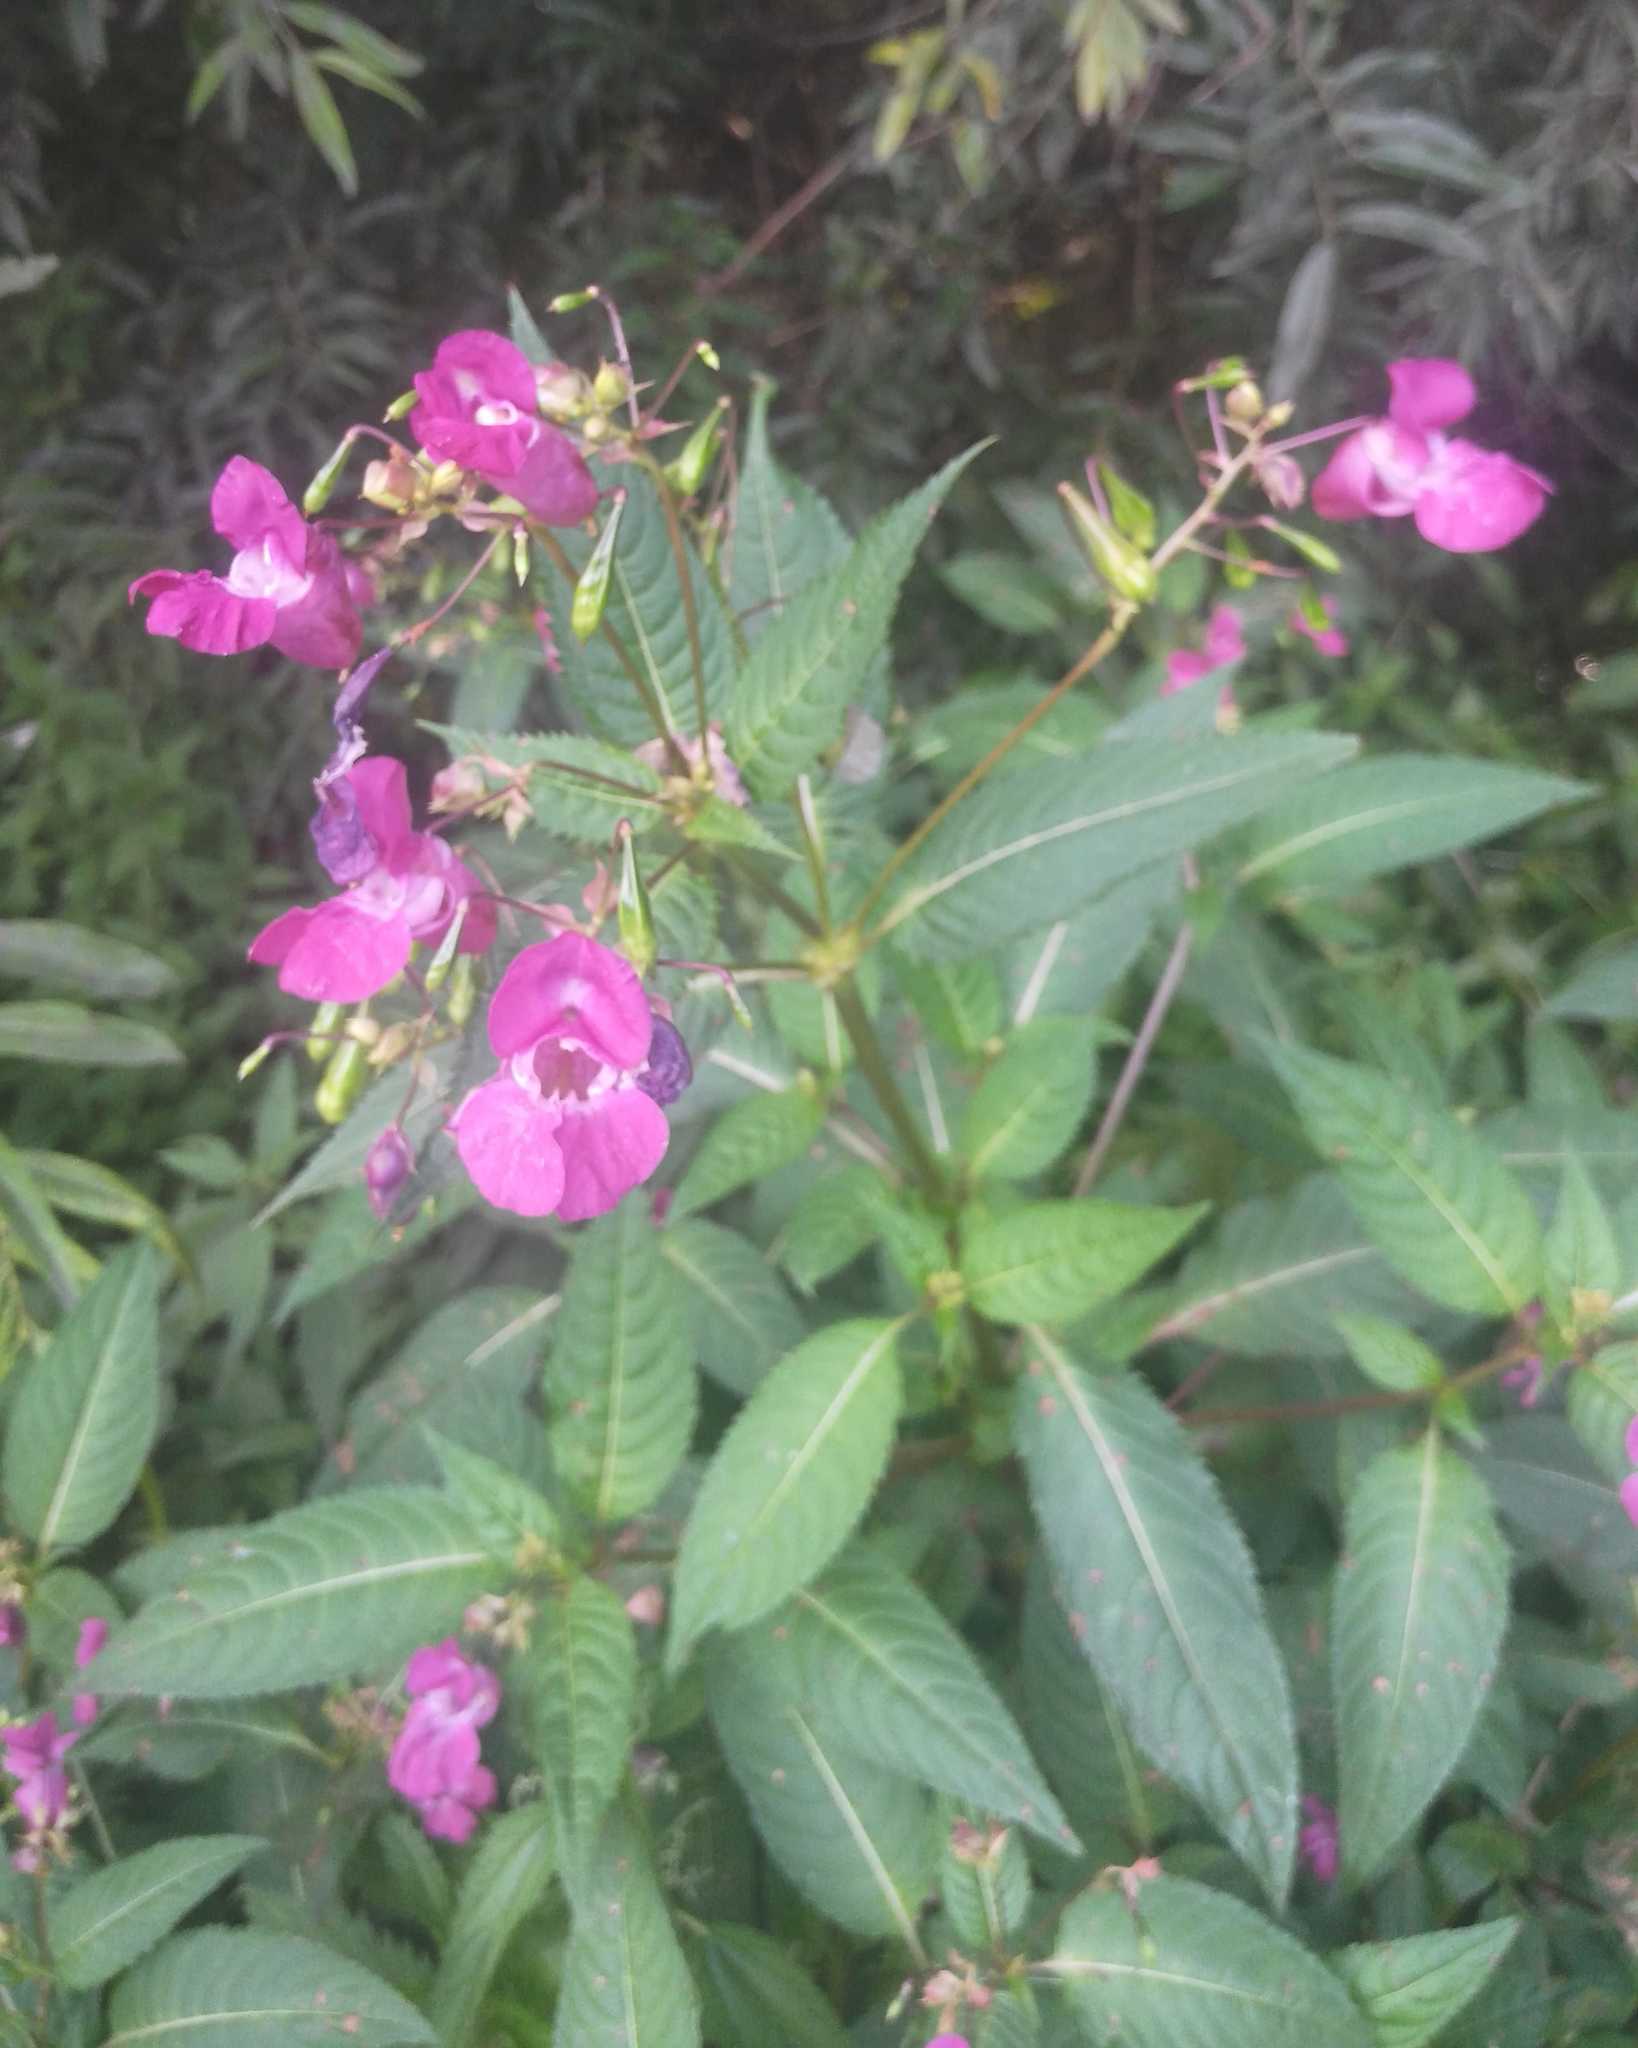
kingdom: Plantae
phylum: Tracheophyta
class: Magnoliopsida
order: Ericales
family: Balsaminaceae
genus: Impatiens
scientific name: Impatiens glandulifera
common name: Himalayan balsam
